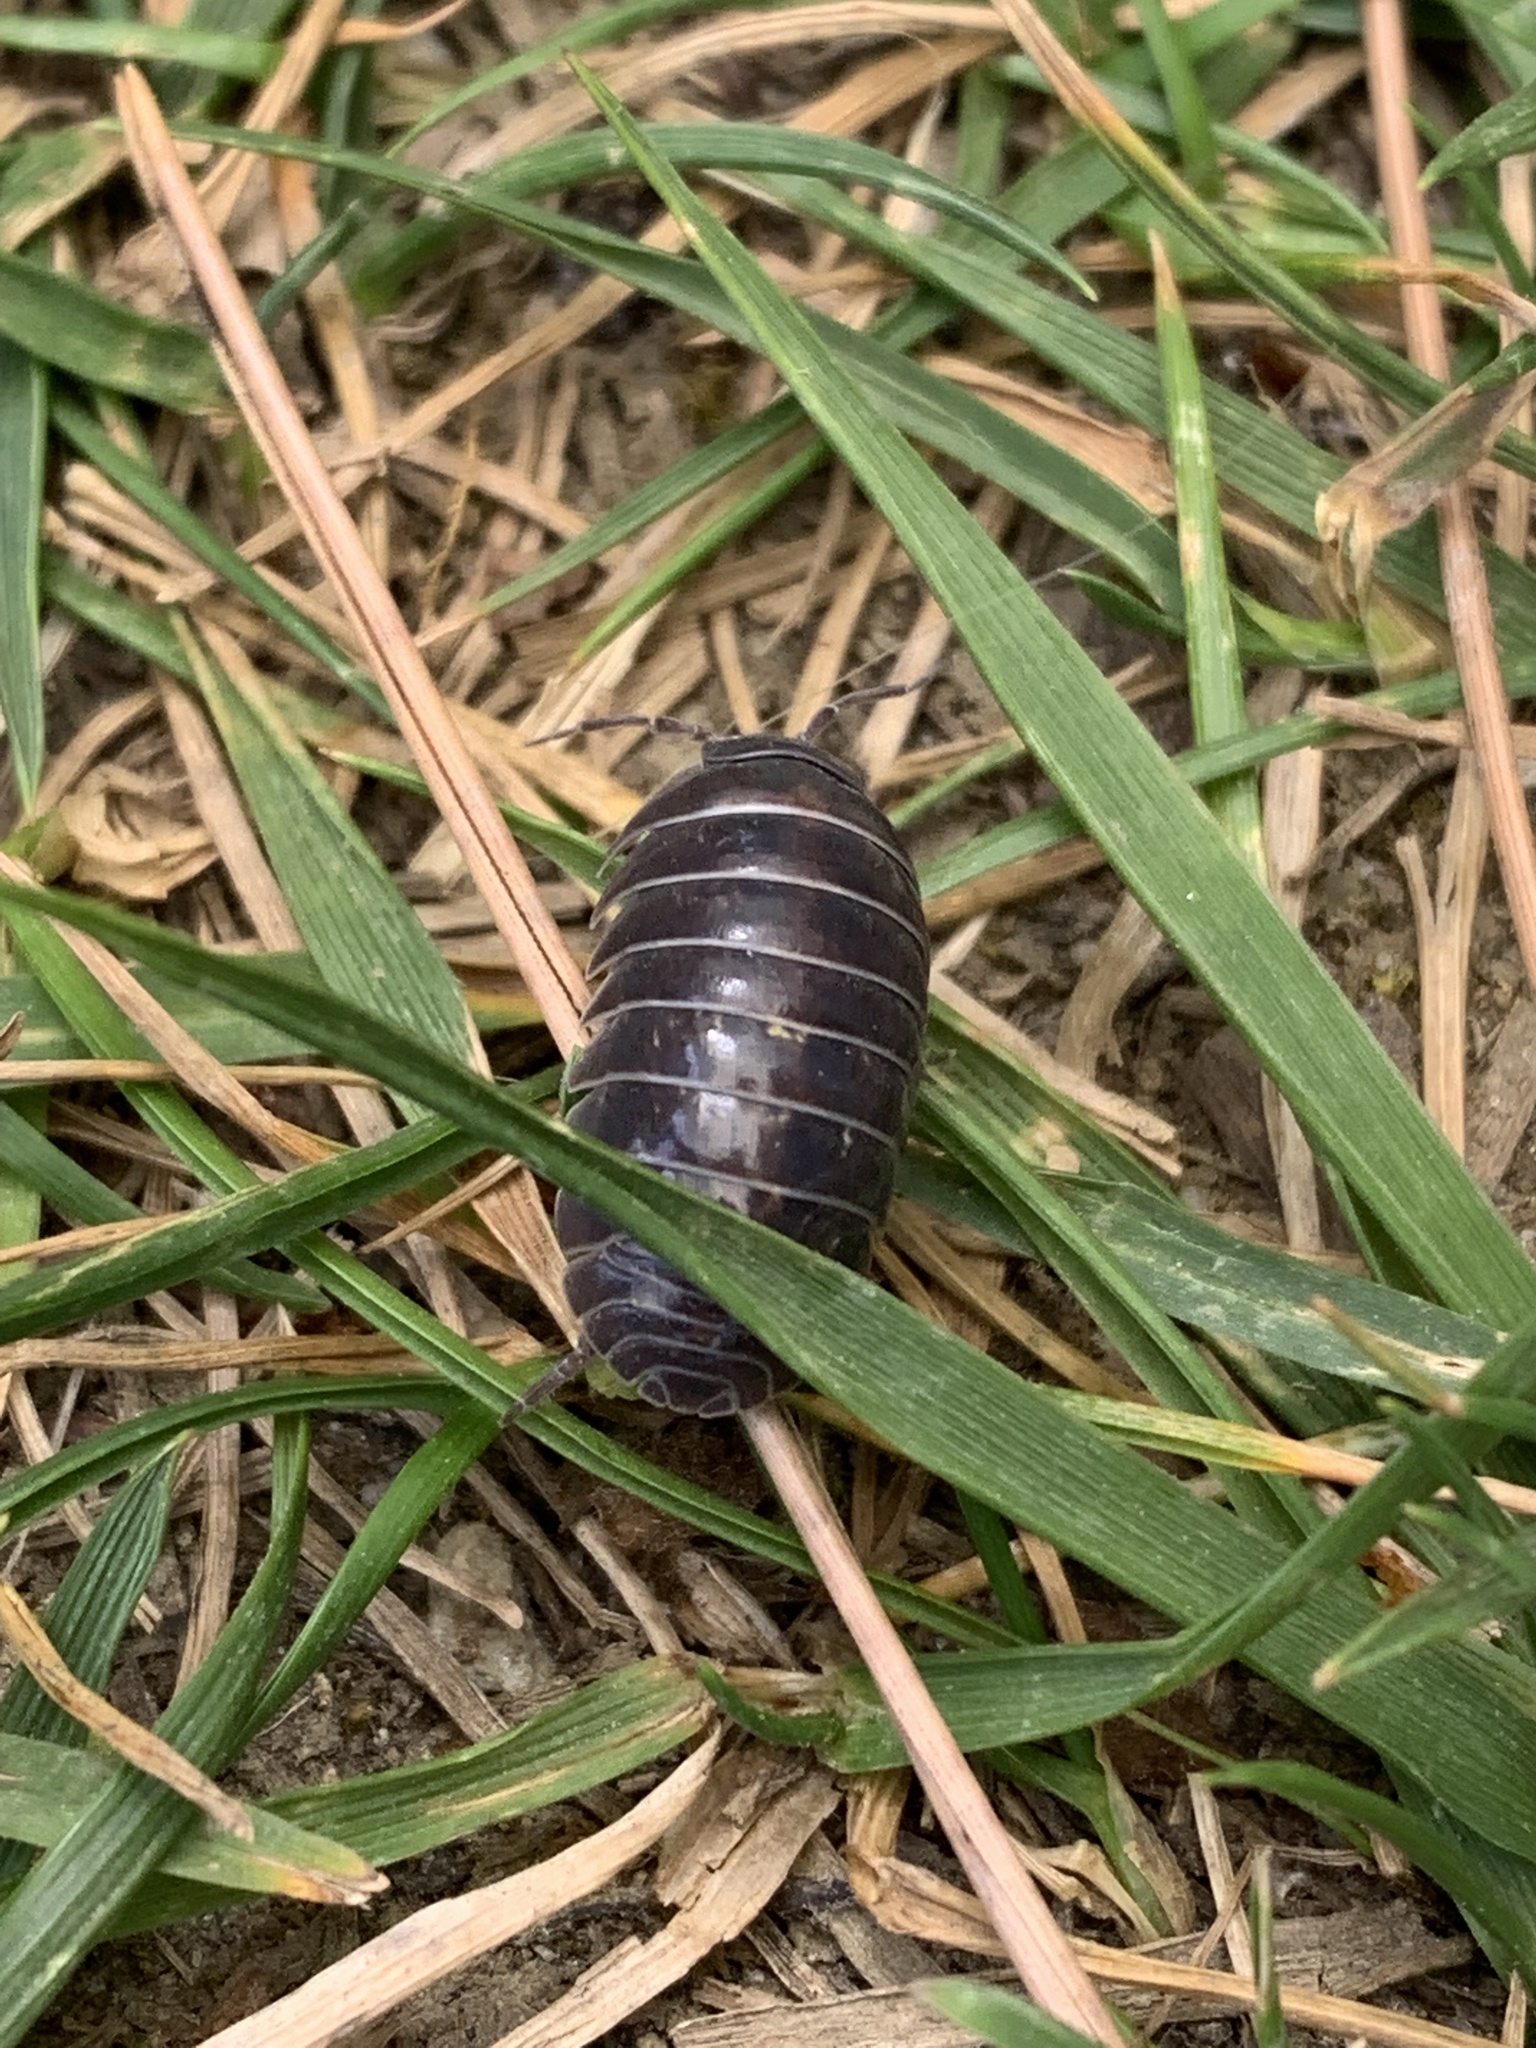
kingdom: Animalia
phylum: Arthropoda
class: Malacostraca
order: Isopoda
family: Armadillidiidae
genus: Armadillidium
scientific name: Armadillidium vulgare
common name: Common pill woodlouse
